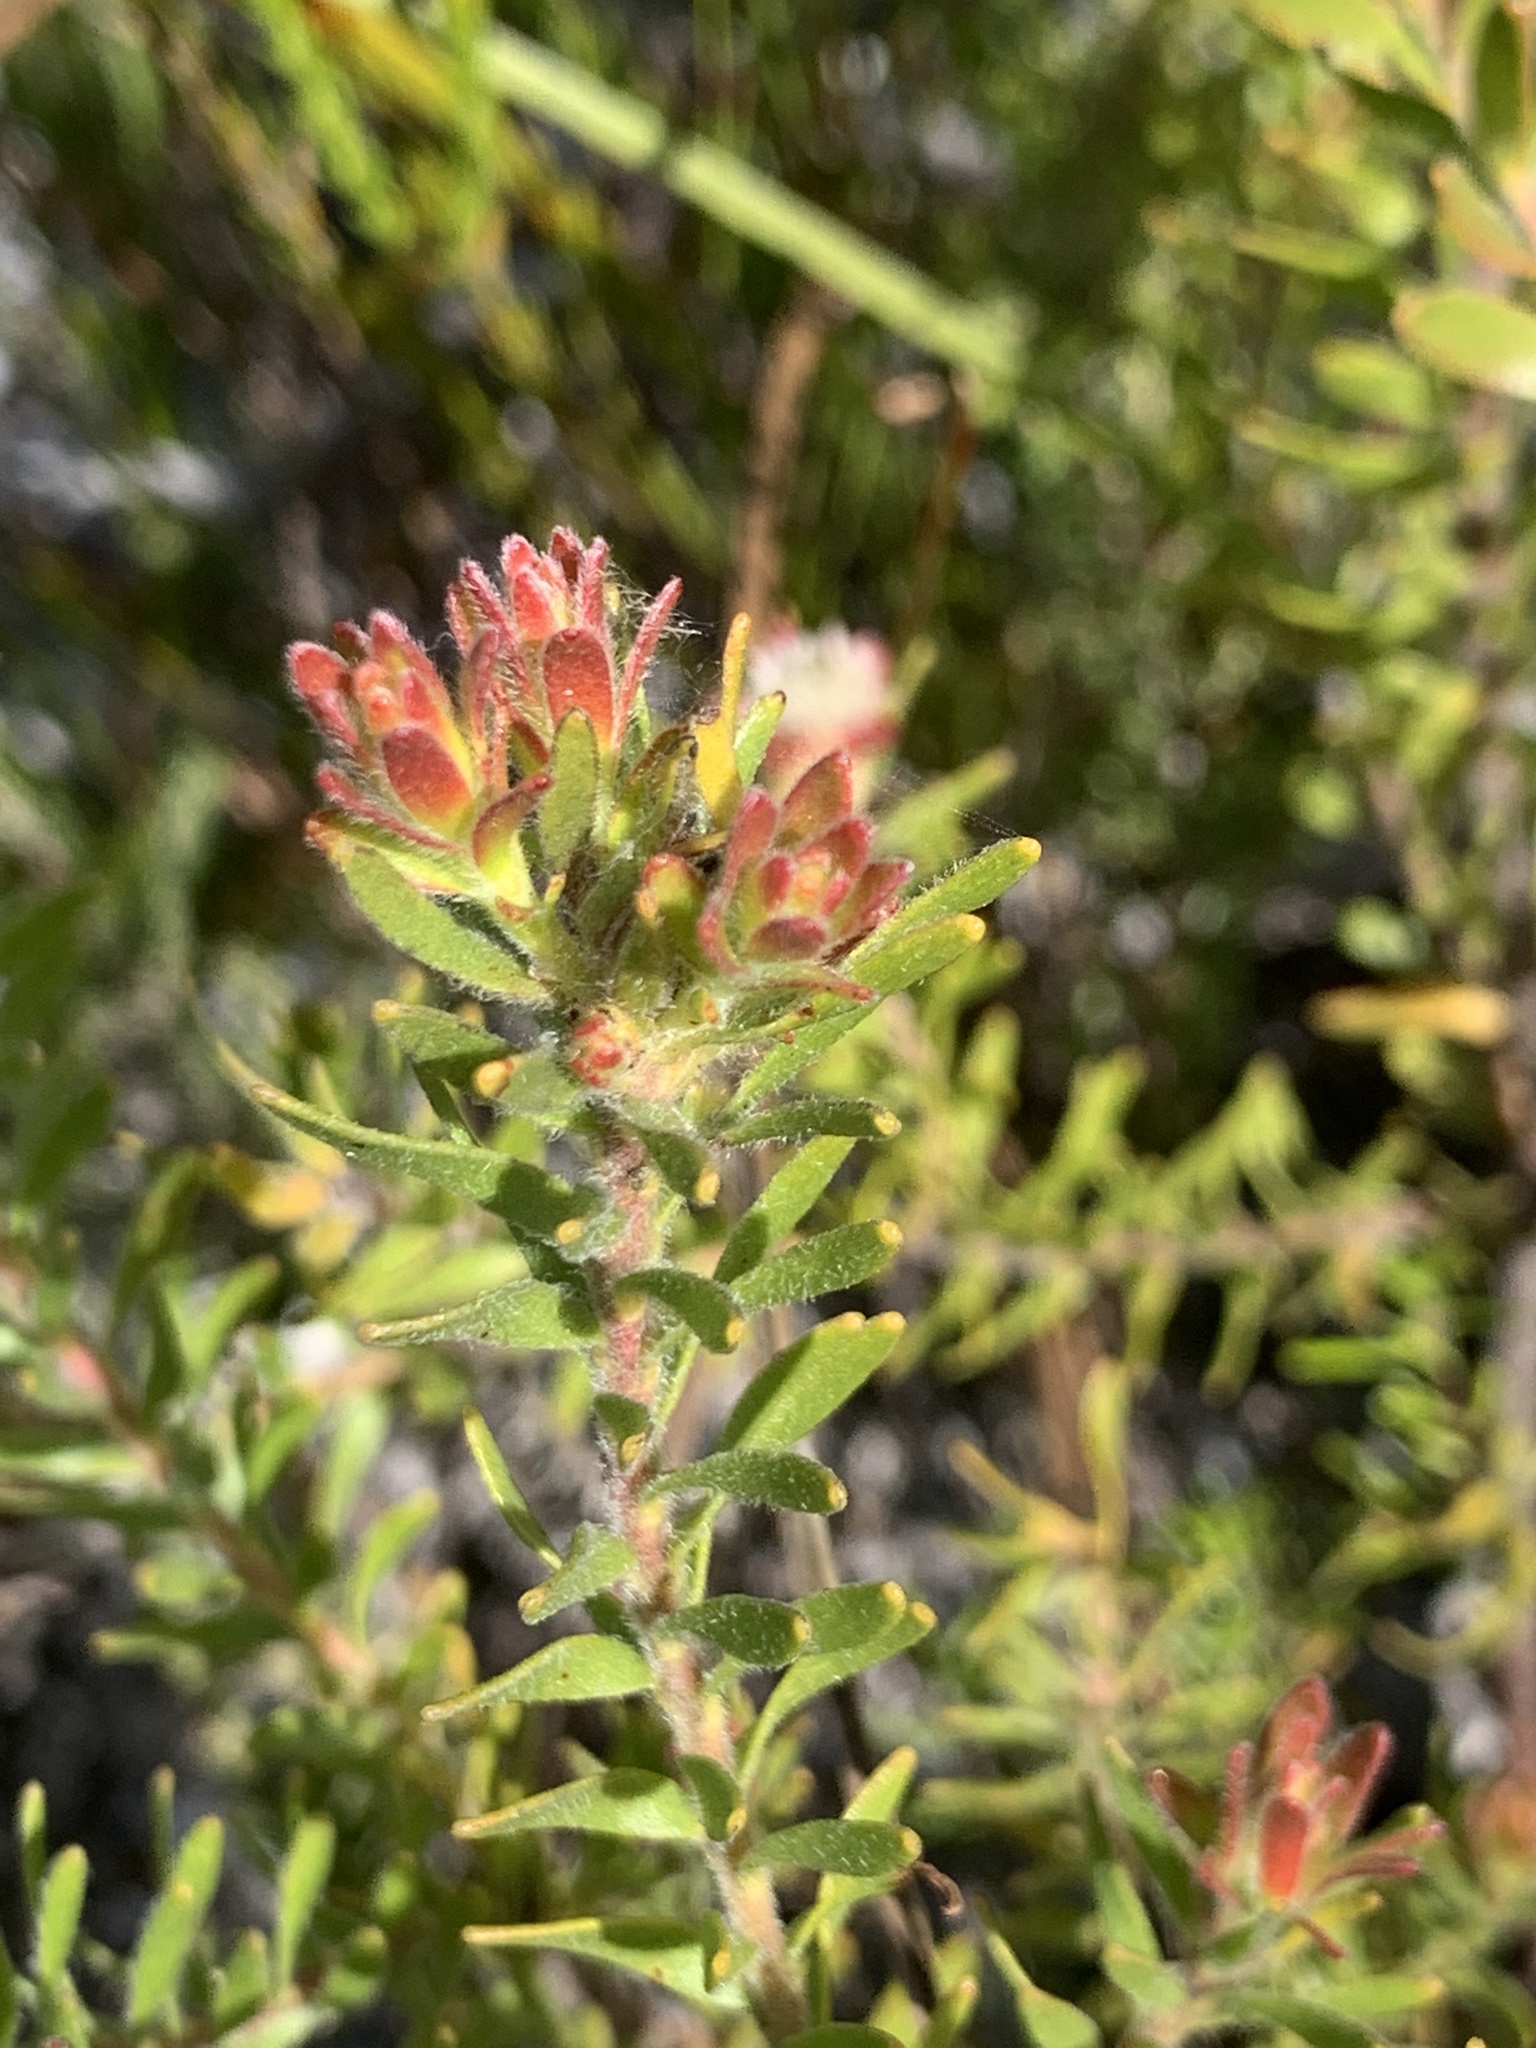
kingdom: Plantae
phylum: Tracheophyta
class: Magnoliopsida
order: Proteales
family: Proteaceae
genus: Diastella
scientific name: Diastella fraterna
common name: Palmiet silkypuff
